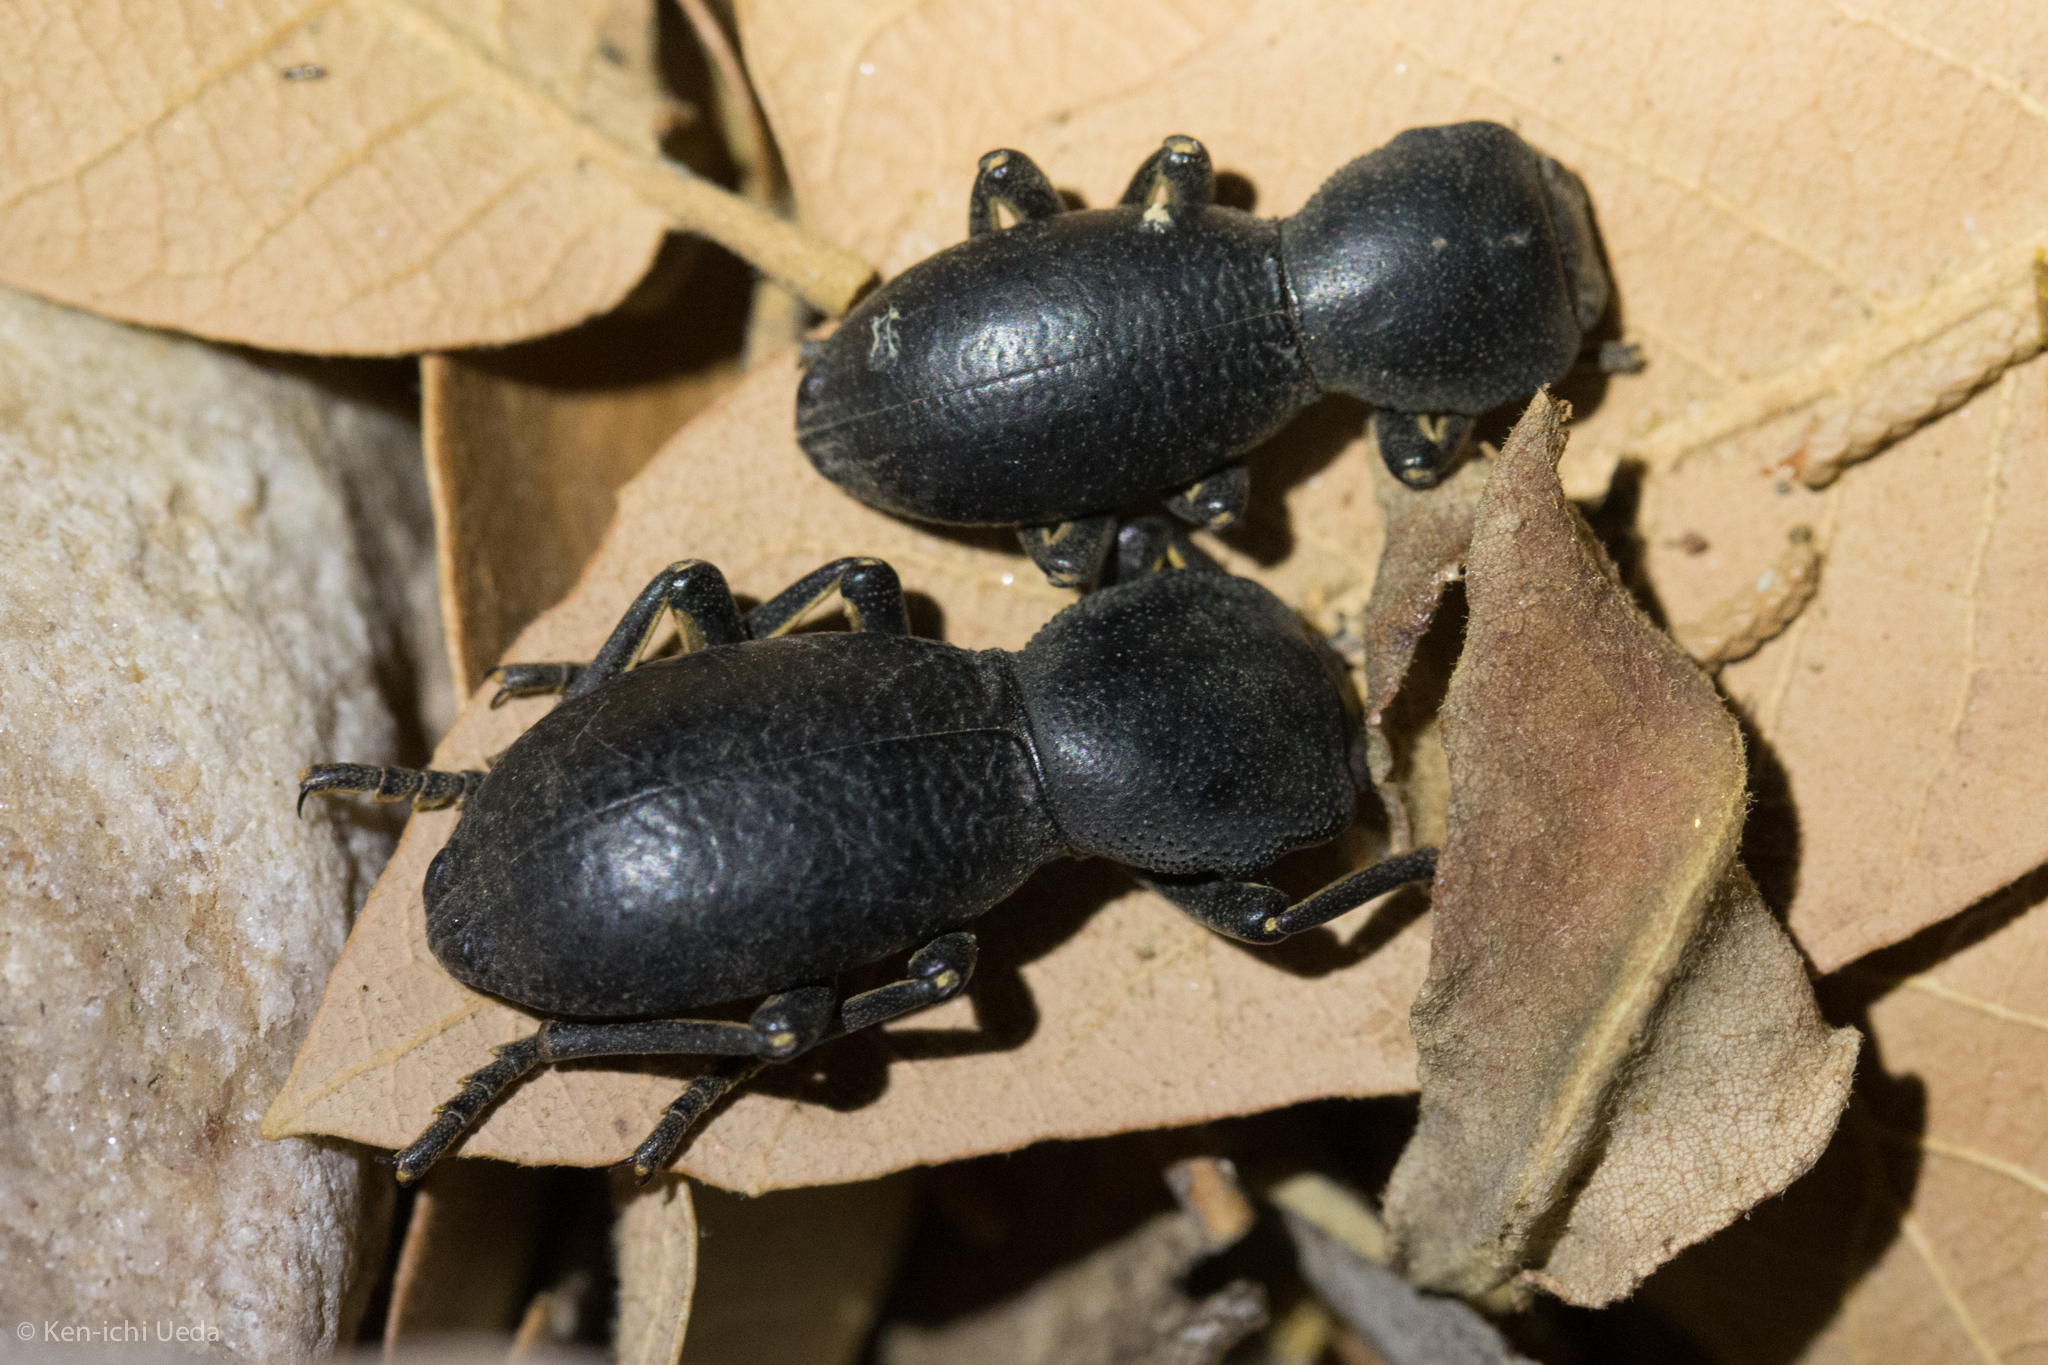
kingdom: Animalia
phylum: Arthropoda
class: Insecta
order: Coleoptera
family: Zopheridae
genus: Zopherus
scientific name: Zopherus gracilis
